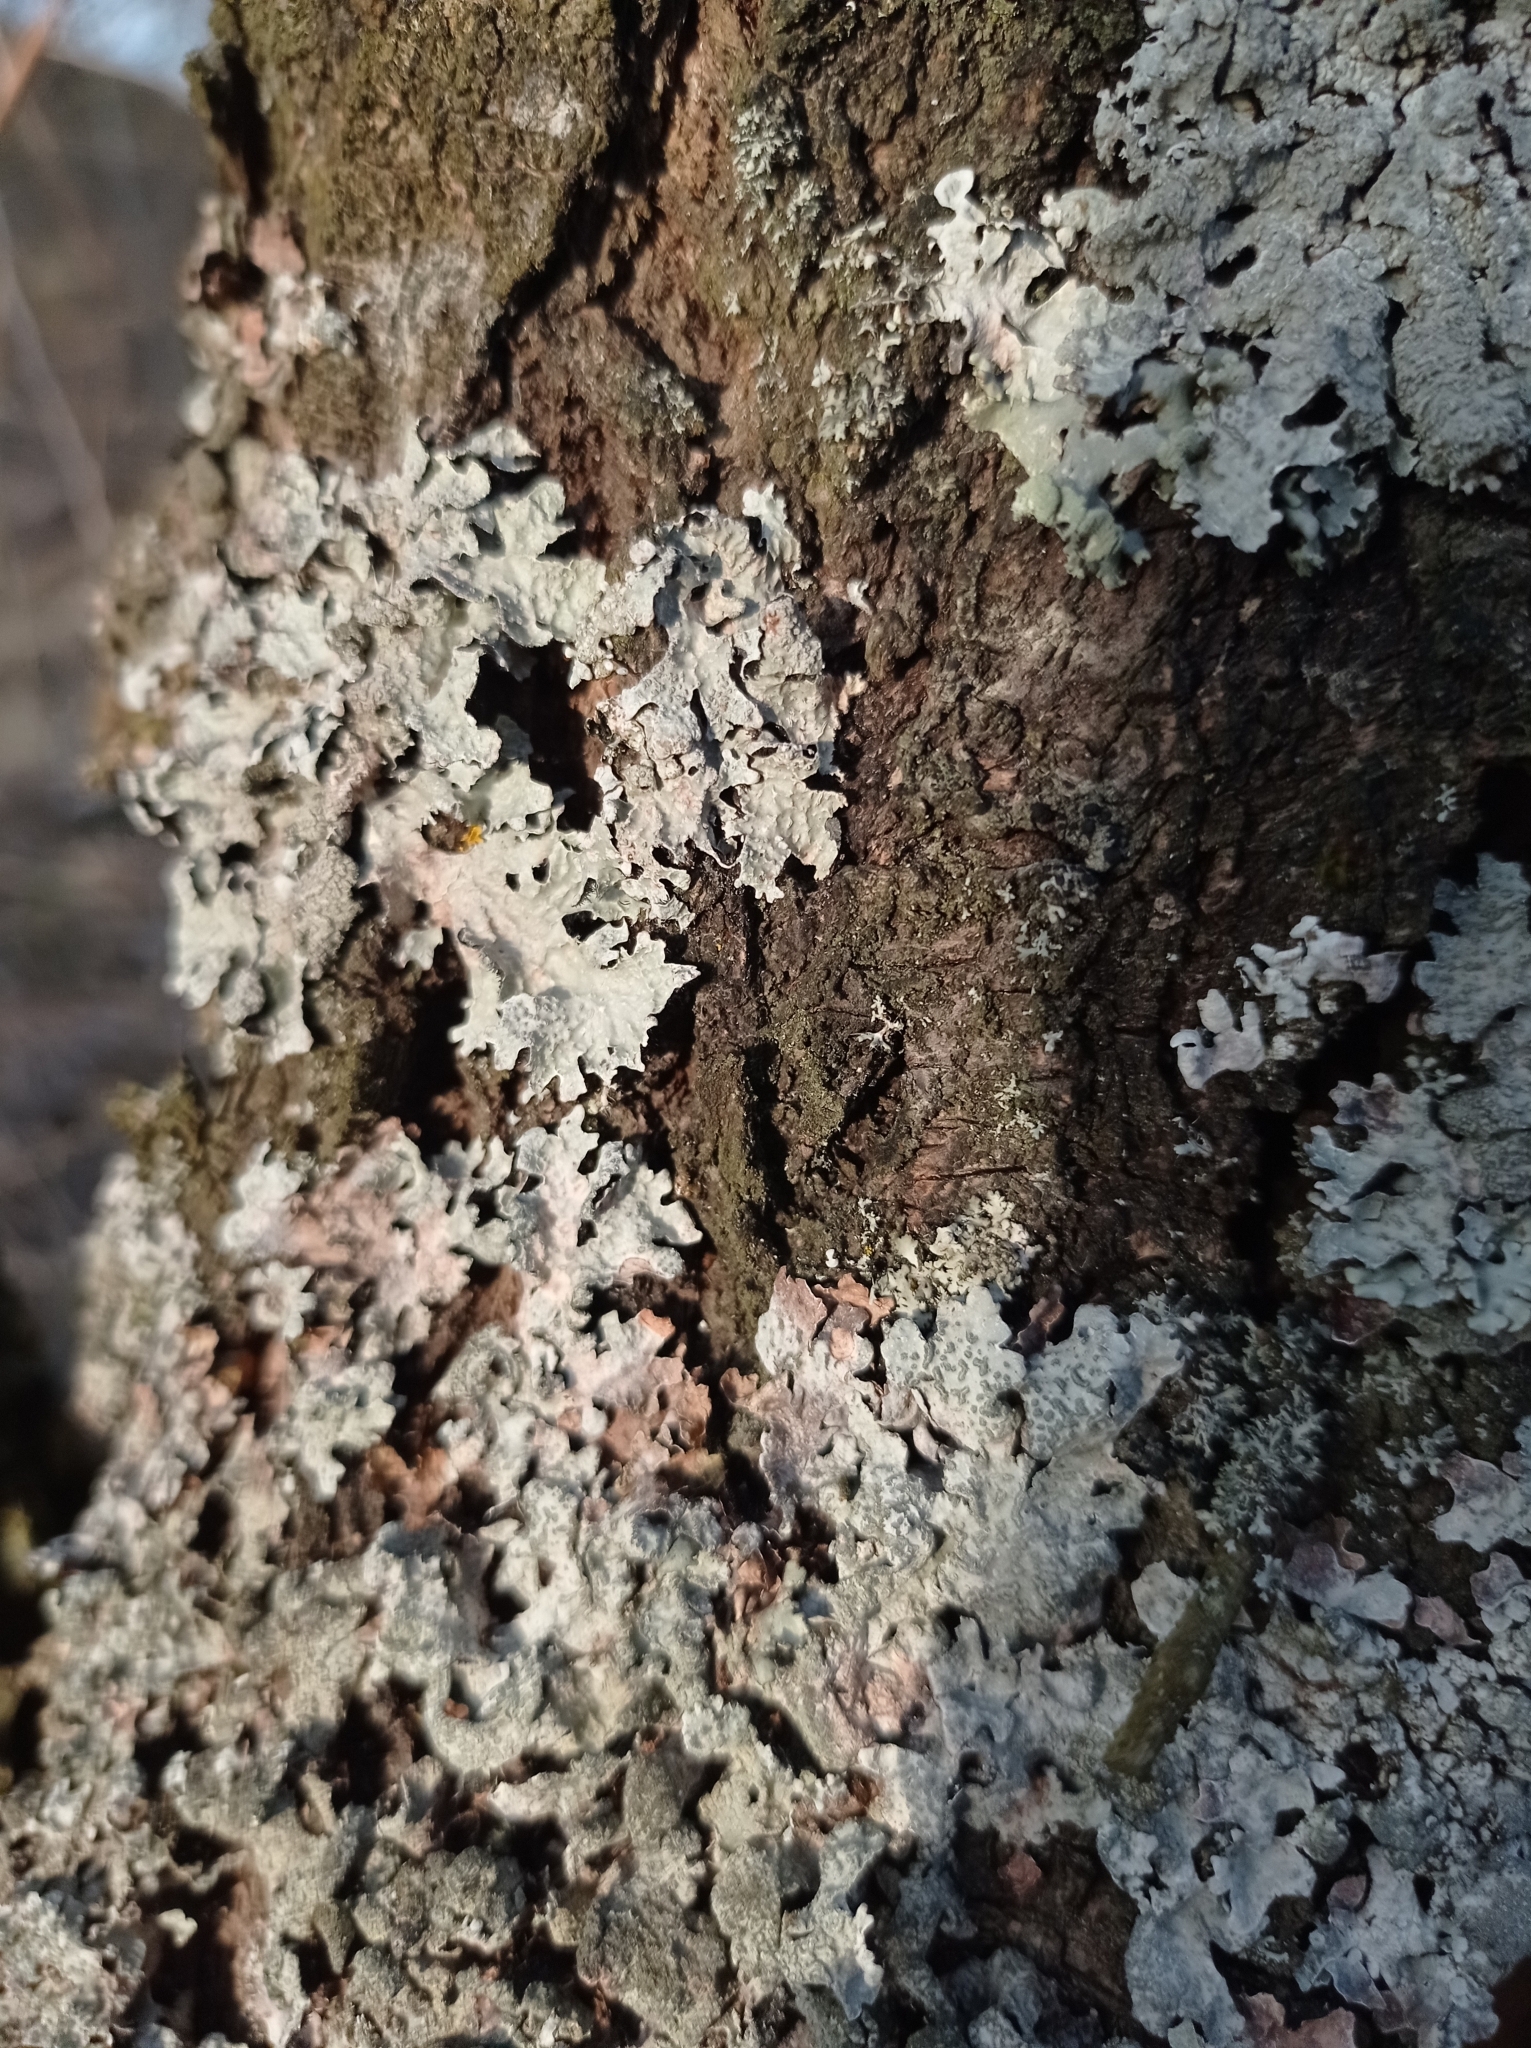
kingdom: Fungi
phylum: Ascomycota
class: Lecanoromycetes
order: Lecanorales
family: Parmeliaceae
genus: Parmelia
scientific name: Parmelia sulcata
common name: Netted shield lichen
